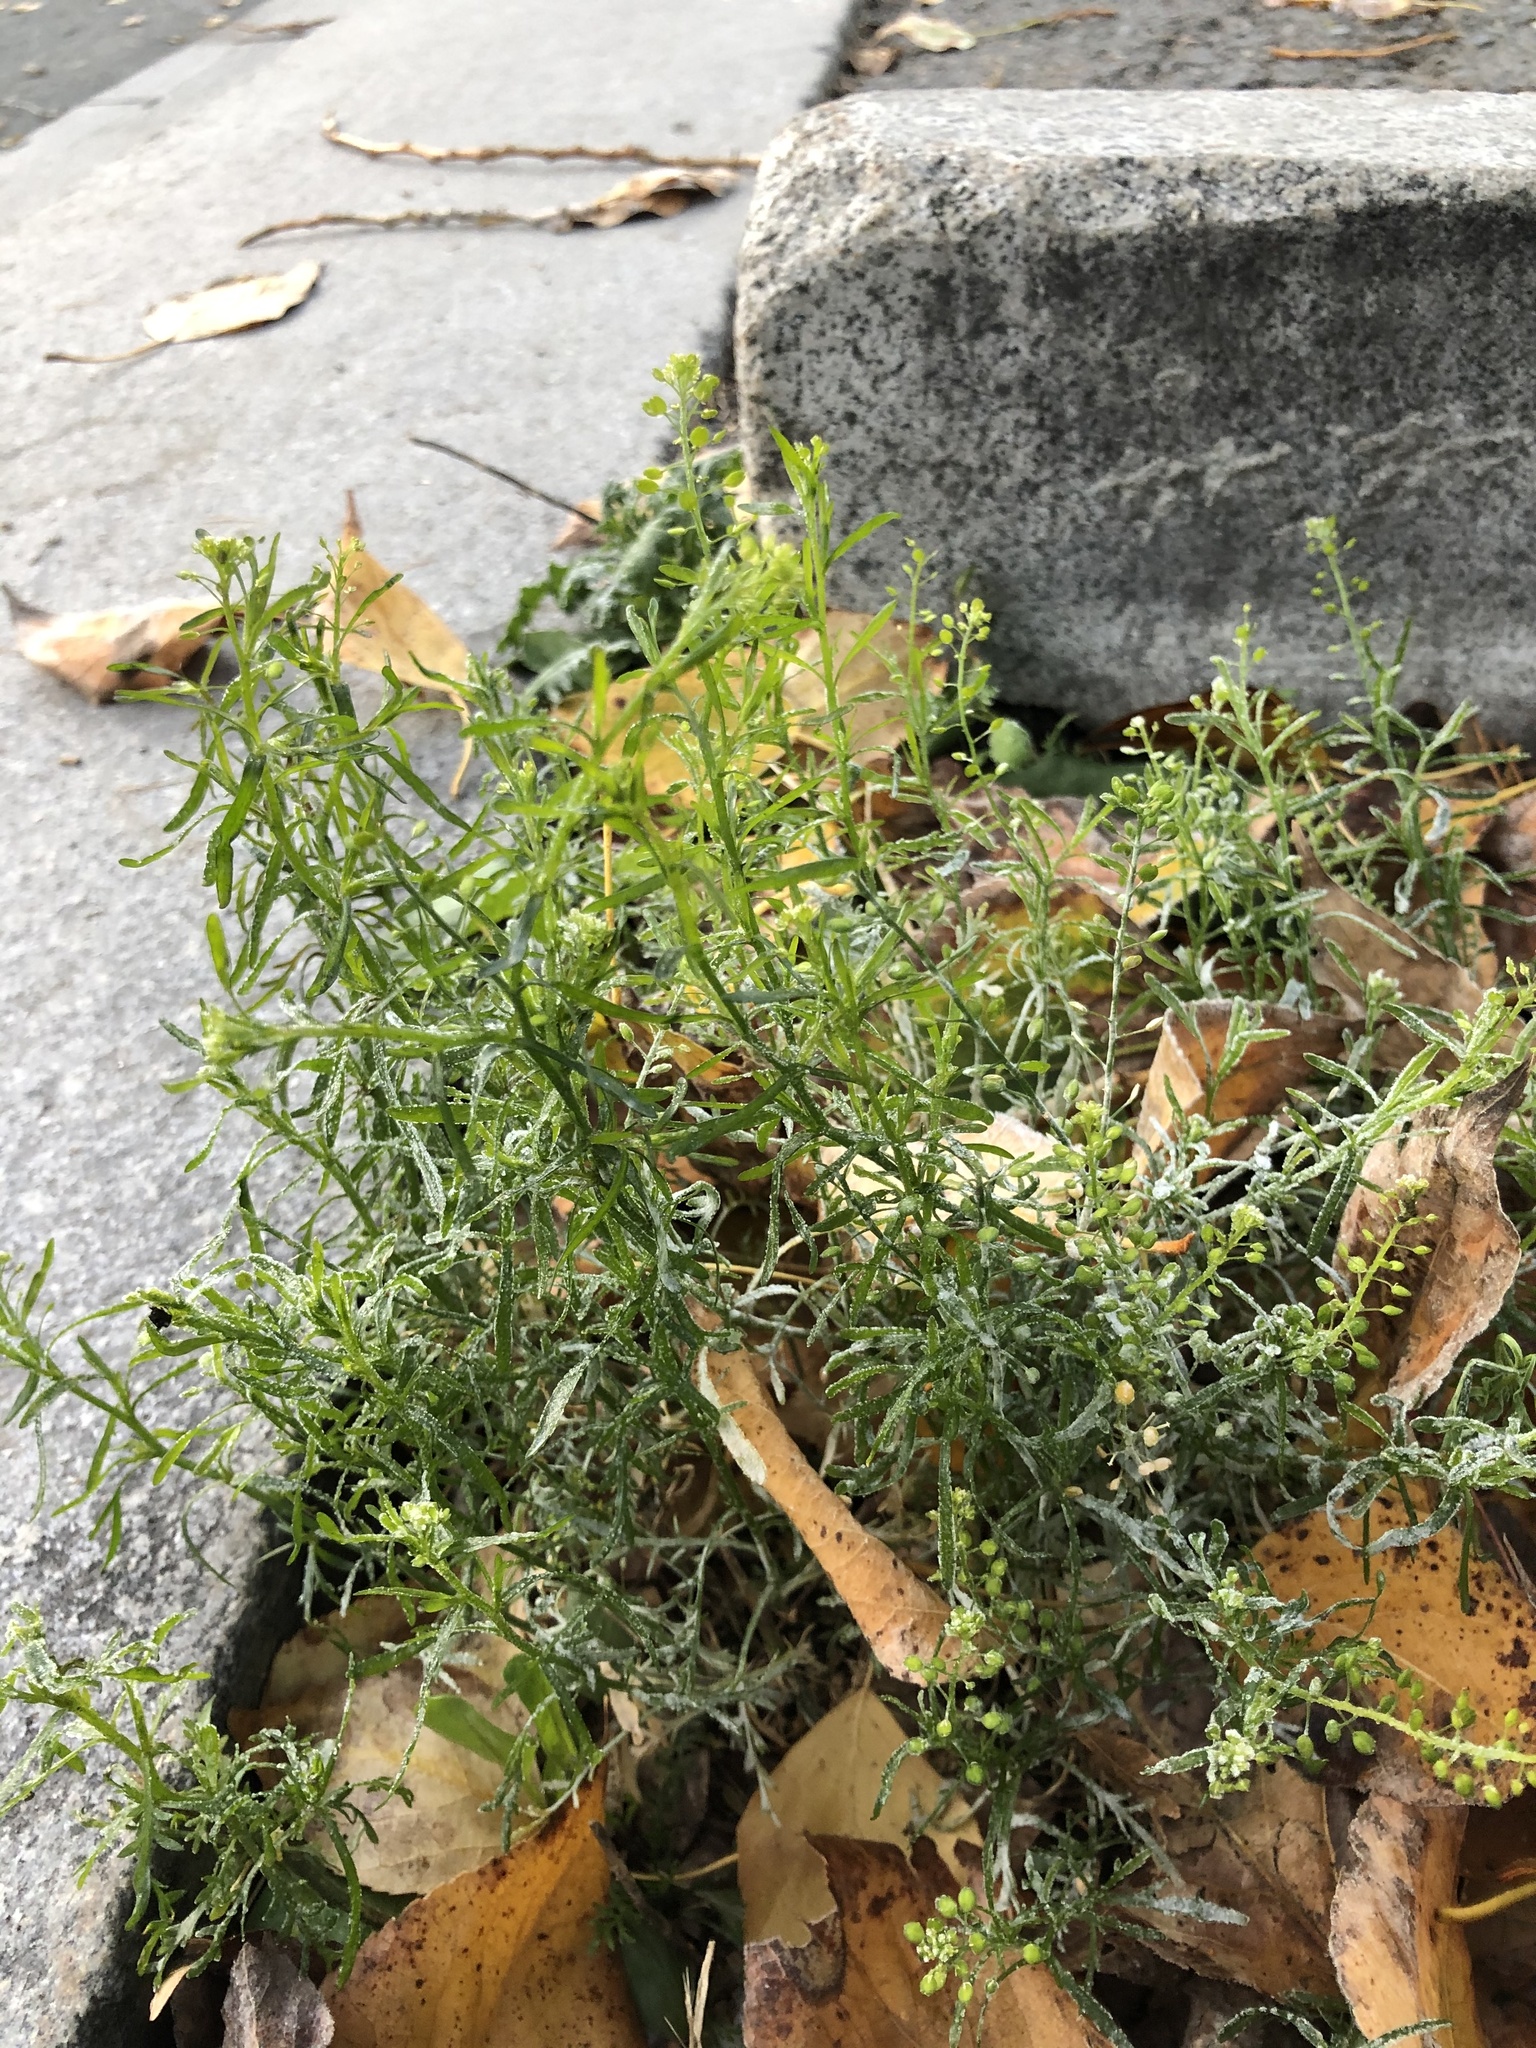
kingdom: Plantae
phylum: Tracheophyta
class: Magnoliopsida
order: Brassicales
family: Brassicaceae
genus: Lepidium
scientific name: Lepidium ruderale
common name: Narrow-leaved pepperwort
